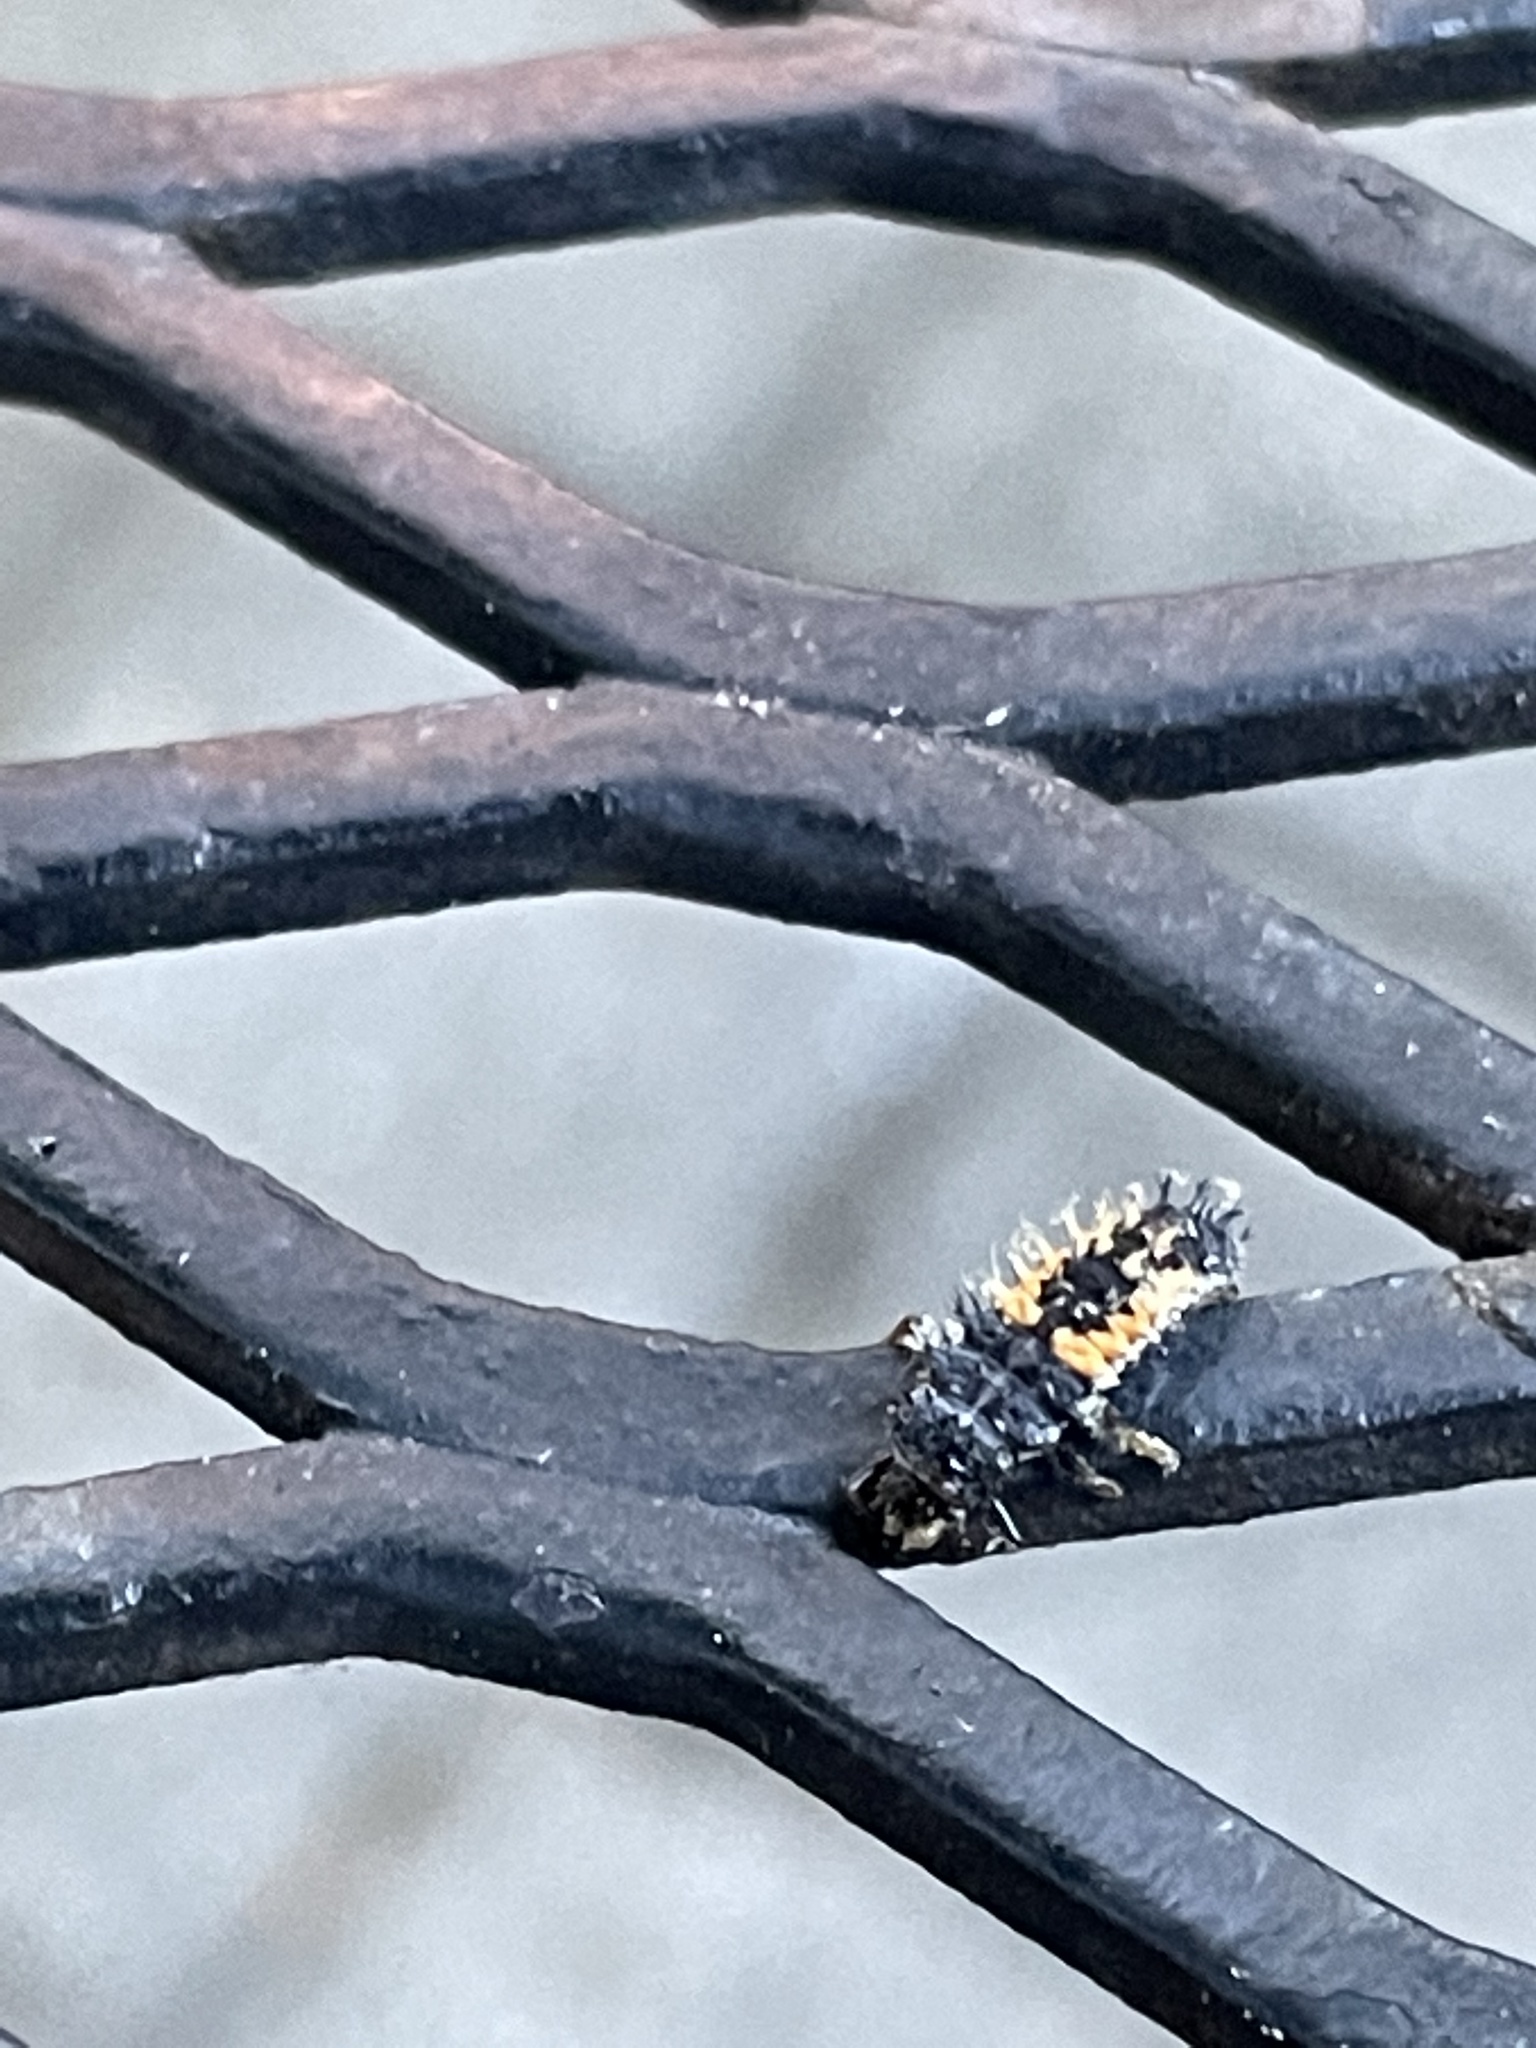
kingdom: Animalia
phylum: Arthropoda
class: Insecta
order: Coleoptera
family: Coccinellidae
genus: Harmonia
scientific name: Harmonia axyridis
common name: Harlequin ladybird
